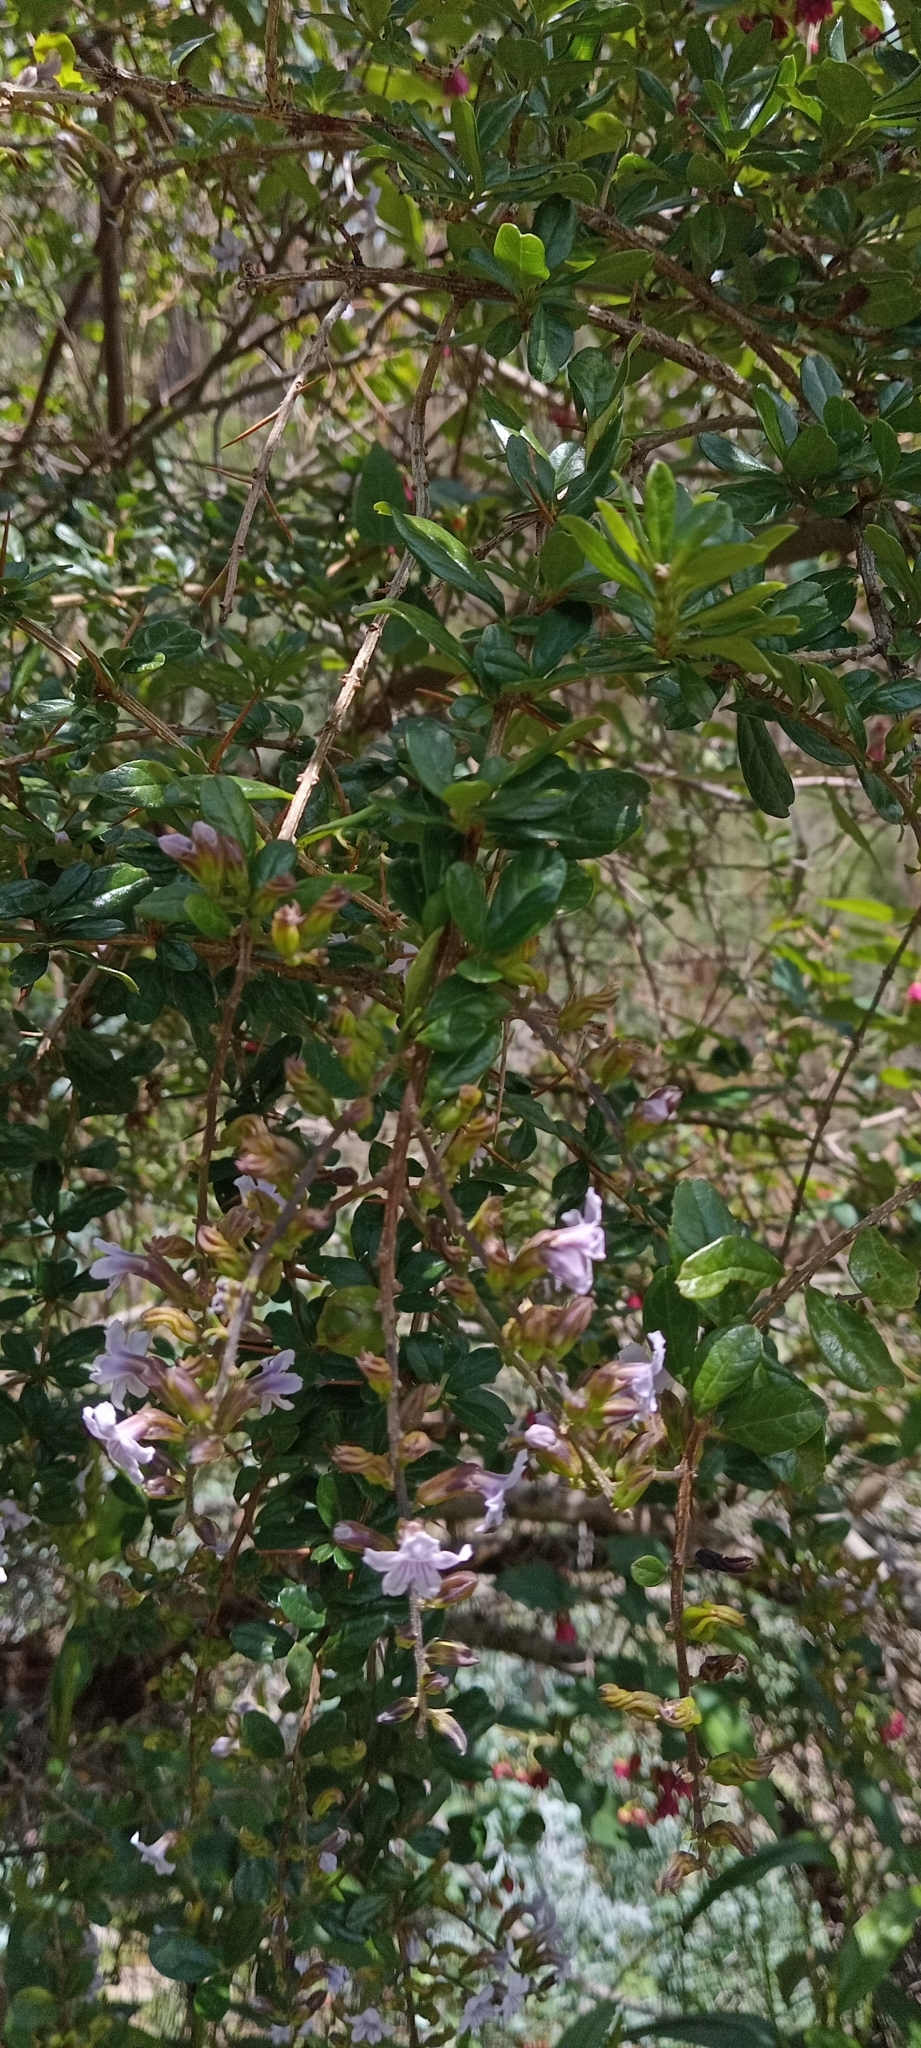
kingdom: Plantae
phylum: Tracheophyta
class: Magnoliopsida
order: Lamiales
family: Verbenaceae
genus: Duranta
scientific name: Duranta armata
